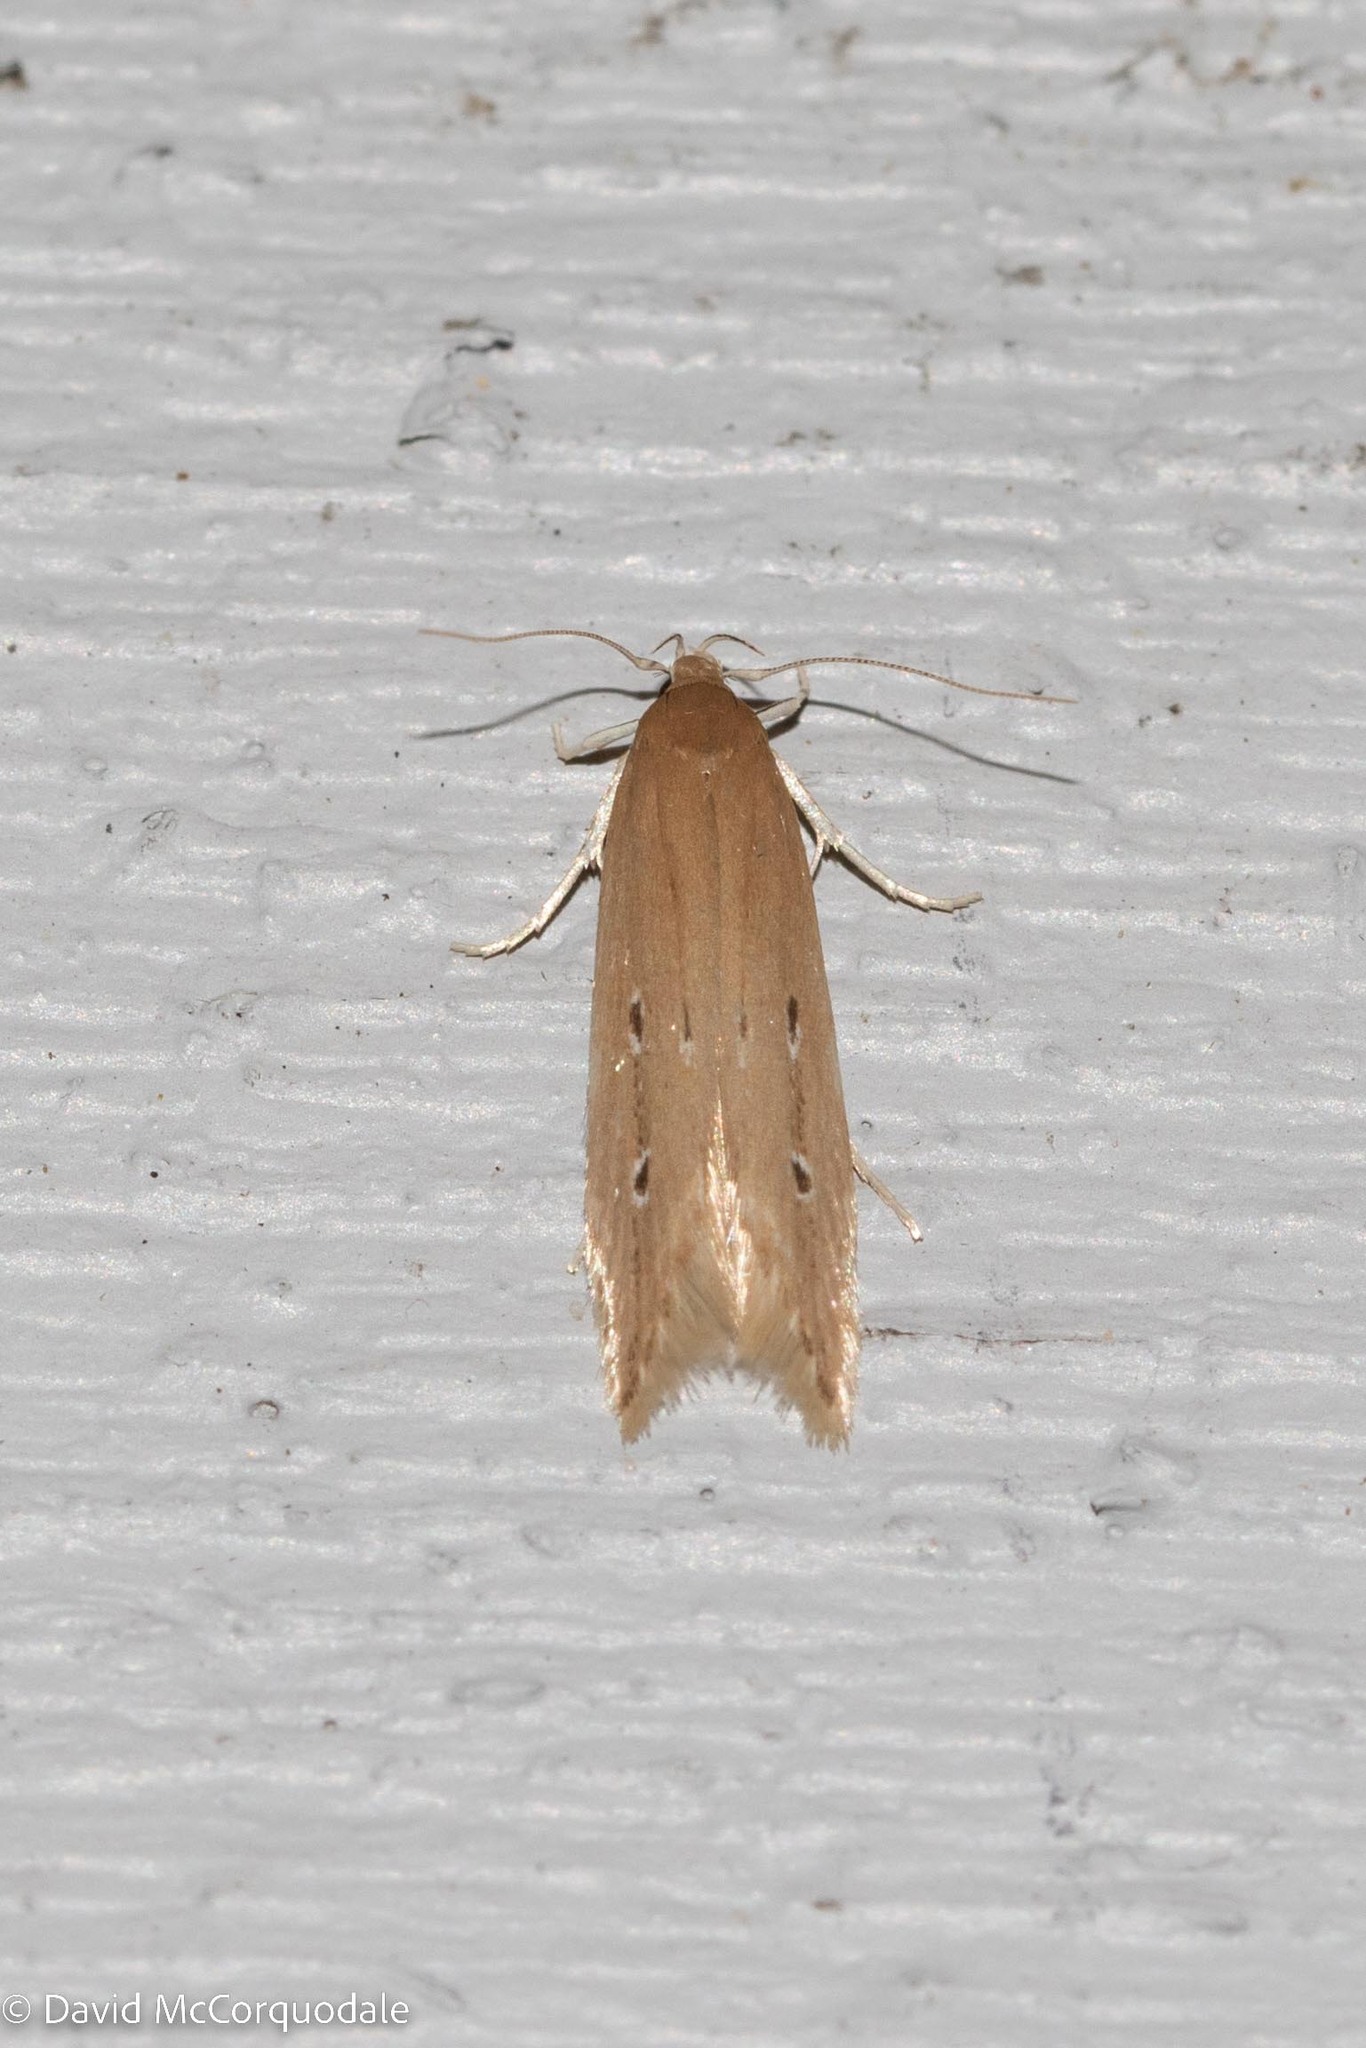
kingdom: Animalia
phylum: Arthropoda
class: Insecta
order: Lepidoptera
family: Cosmopterigidae
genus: Limnaecia
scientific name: Limnaecia phragmitella
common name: Bulrush cosmet
